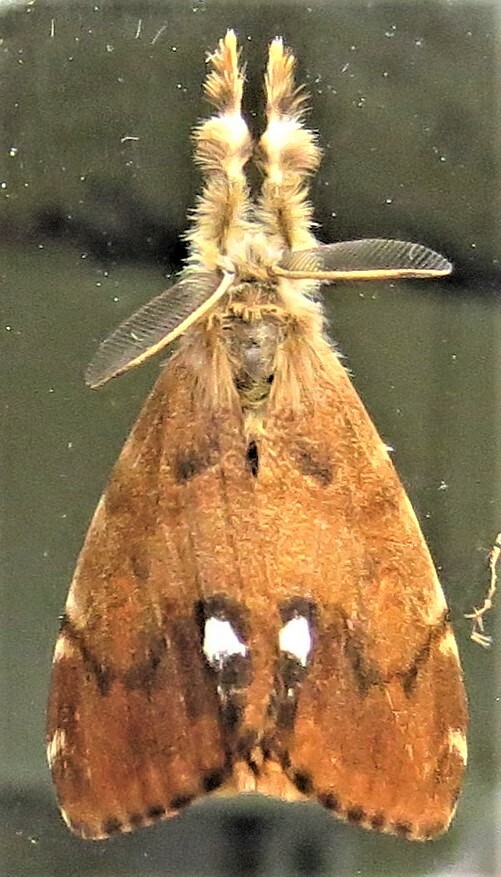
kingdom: Animalia
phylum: Arthropoda
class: Insecta
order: Lepidoptera
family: Erebidae
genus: Orgyia
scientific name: Orgyia antiqua
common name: Vapourer
